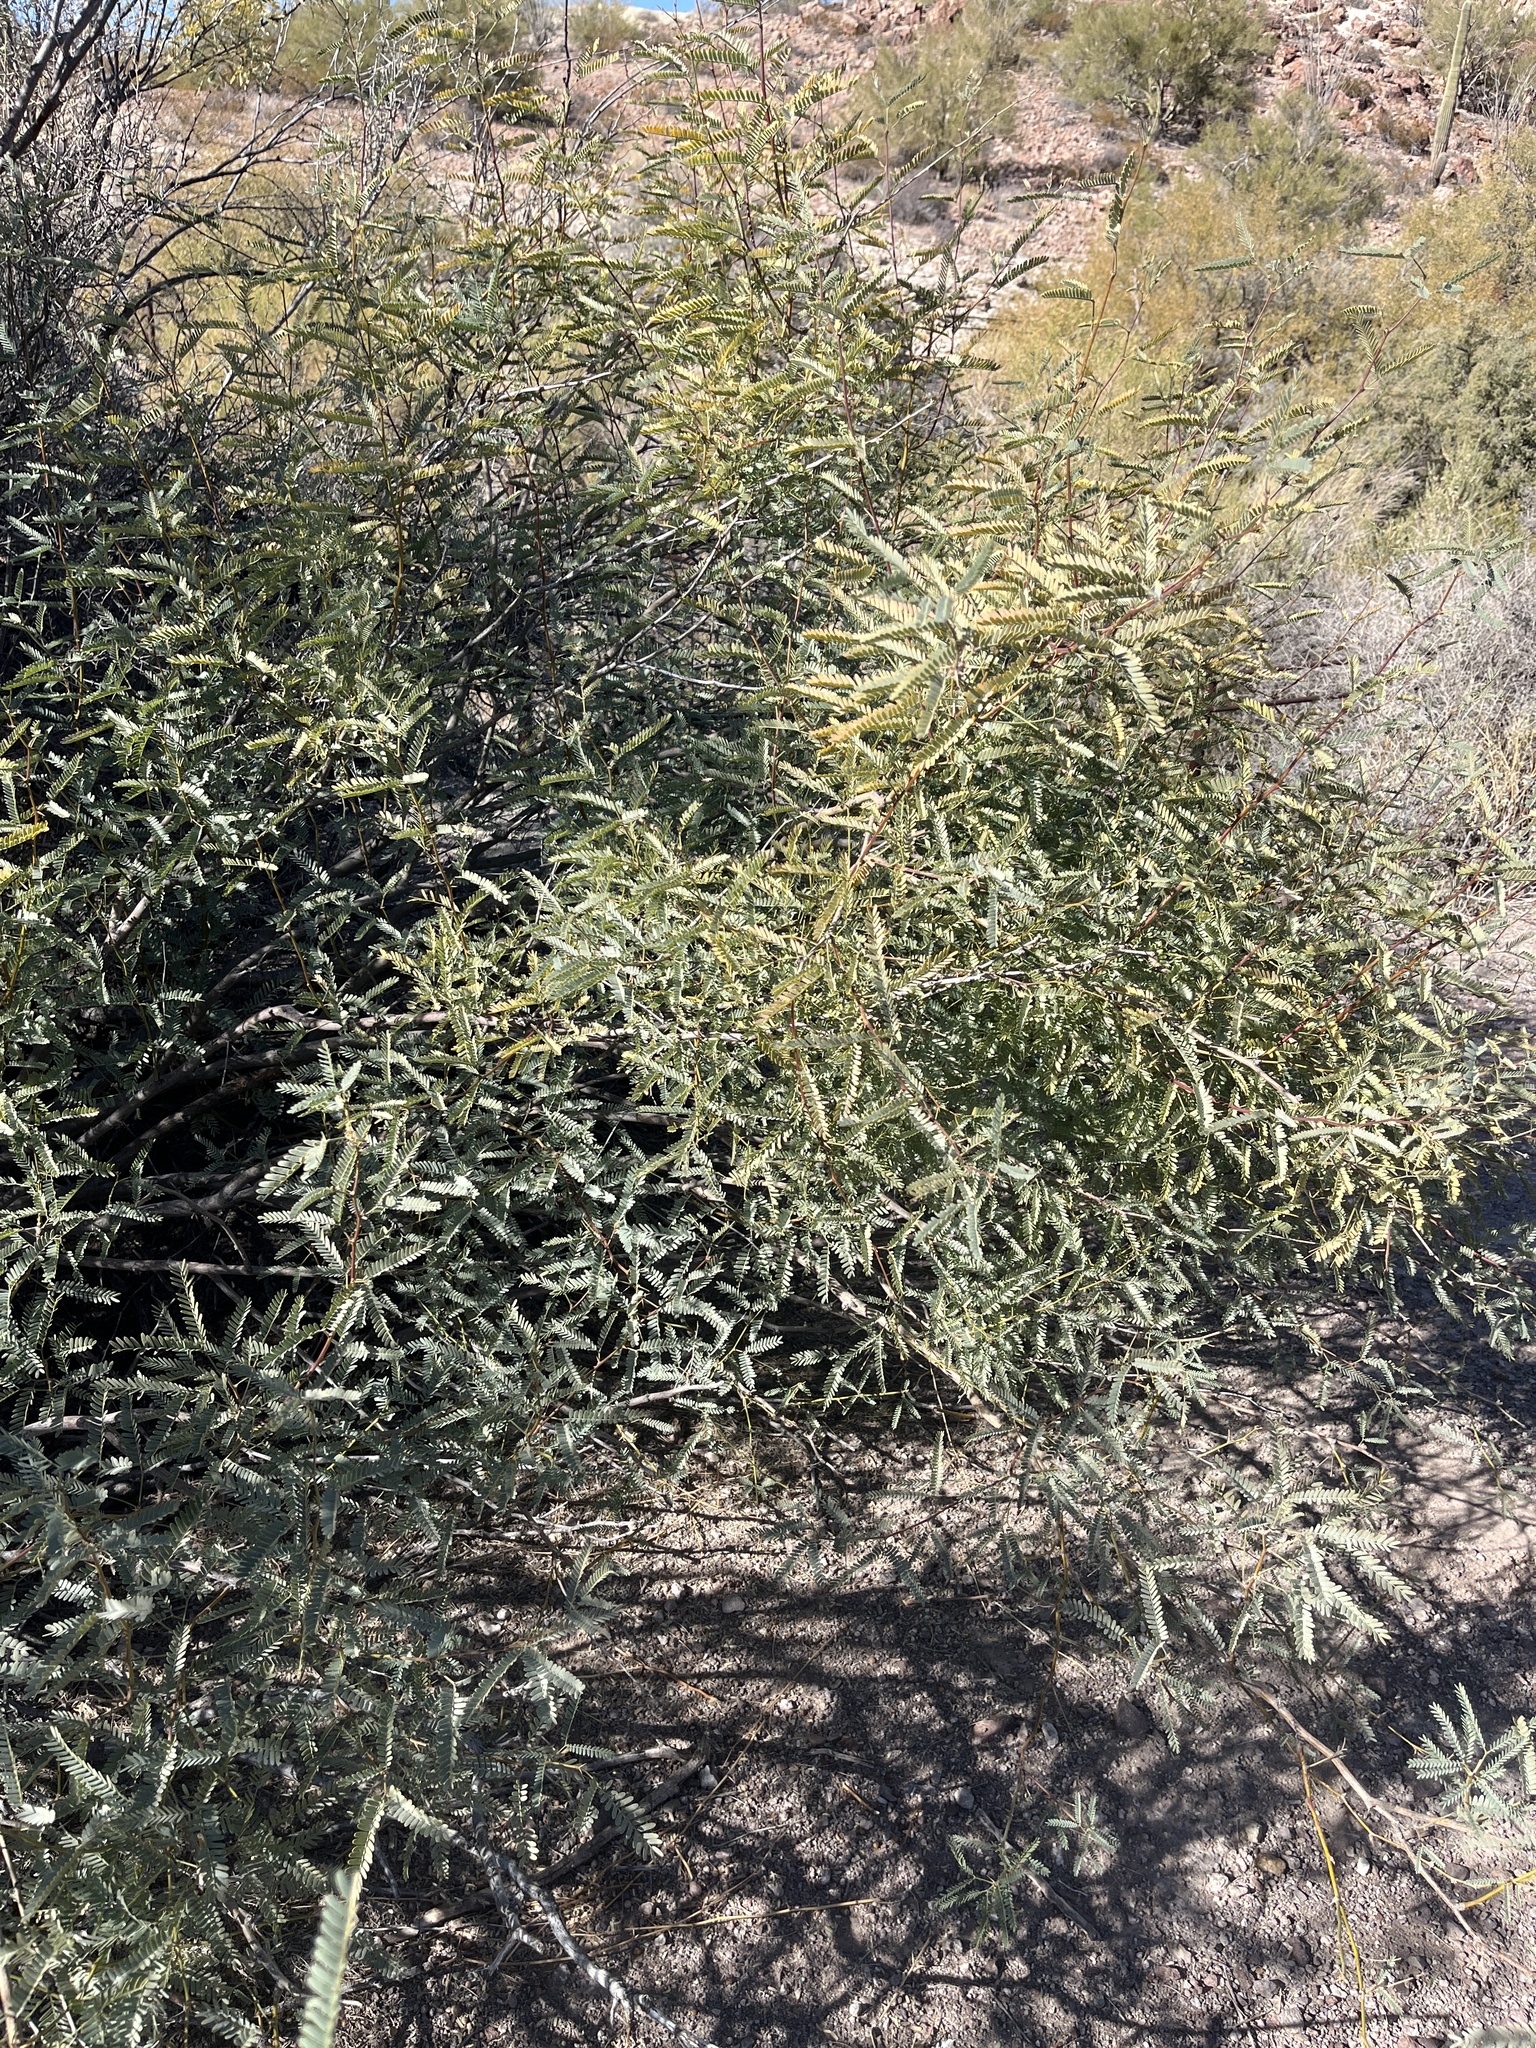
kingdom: Plantae
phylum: Tracheophyta
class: Magnoliopsida
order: Fabales
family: Fabaceae
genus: Prosopis
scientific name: Prosopis velutina
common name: Velvet mesquite
